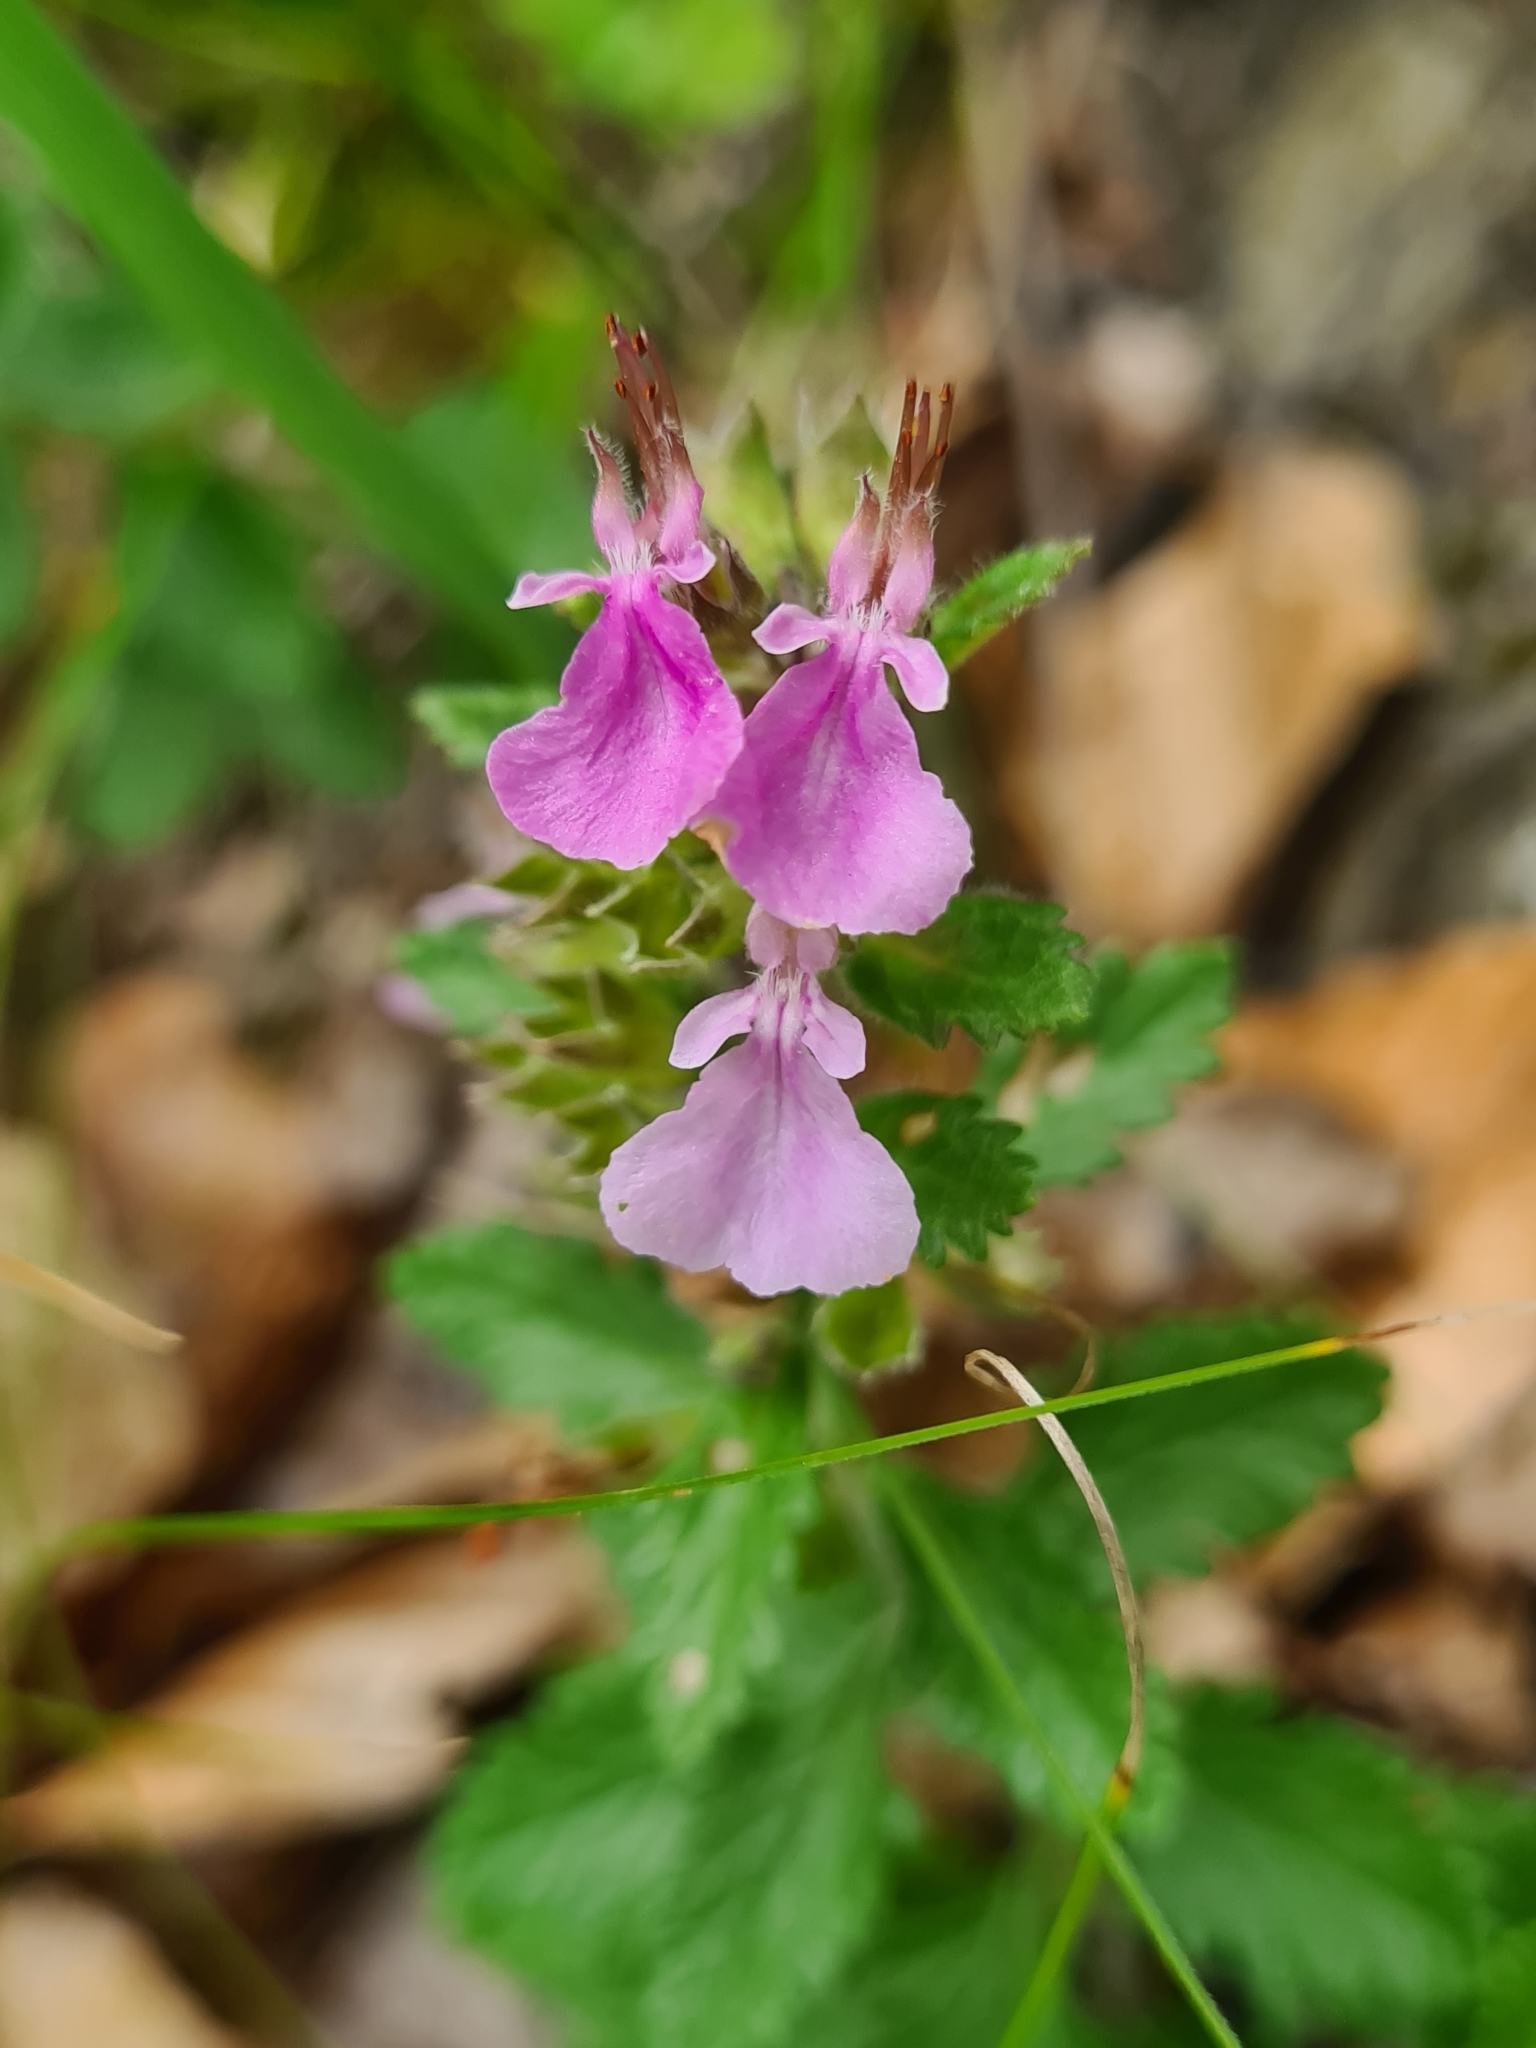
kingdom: Plantae
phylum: Tracheophyta
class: Magnoliopsida
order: Lamiales
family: Lamiaceae
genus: Teucrium
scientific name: Teucrium chamaedrys
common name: Wall germander
